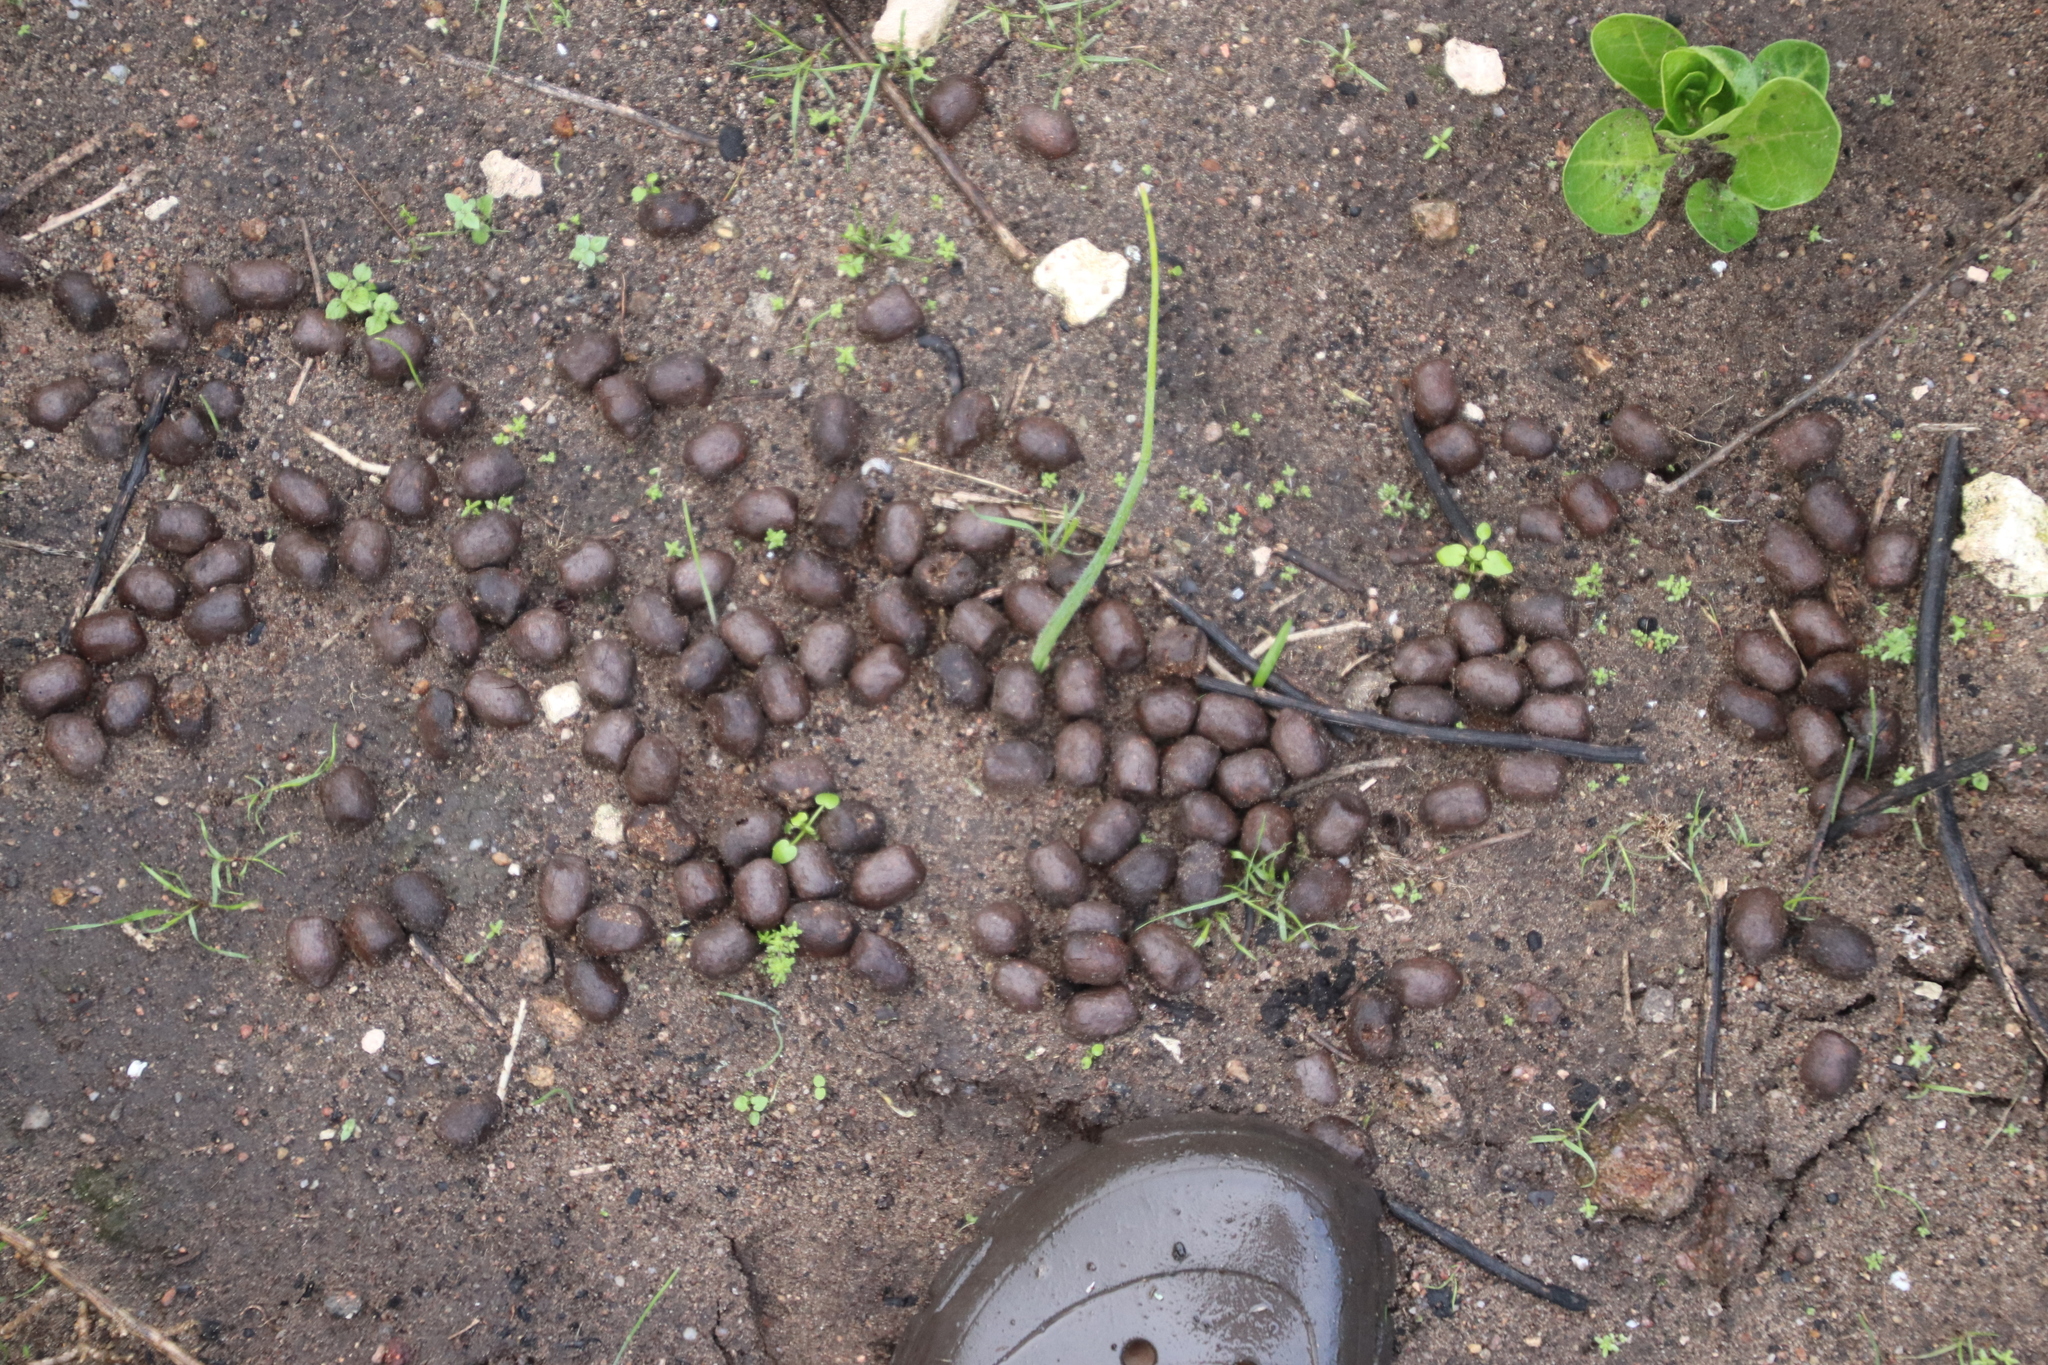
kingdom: Animalia
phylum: Chordata
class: Mammalia
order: Artiodactyla
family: Bovidae
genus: Taurotragus
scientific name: Taurotragus oryx
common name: Common eland
